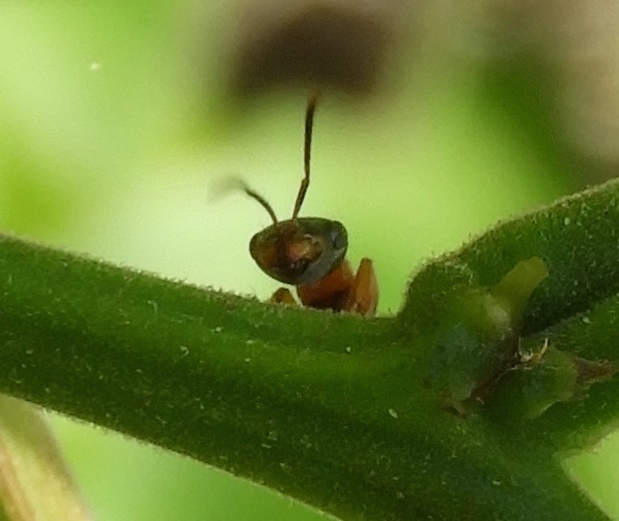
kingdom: Animalia
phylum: Arthropoda
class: Insecta
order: Hymenoptera
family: Formicidae
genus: Pseudomyrmex
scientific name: Pseudomyrmex
